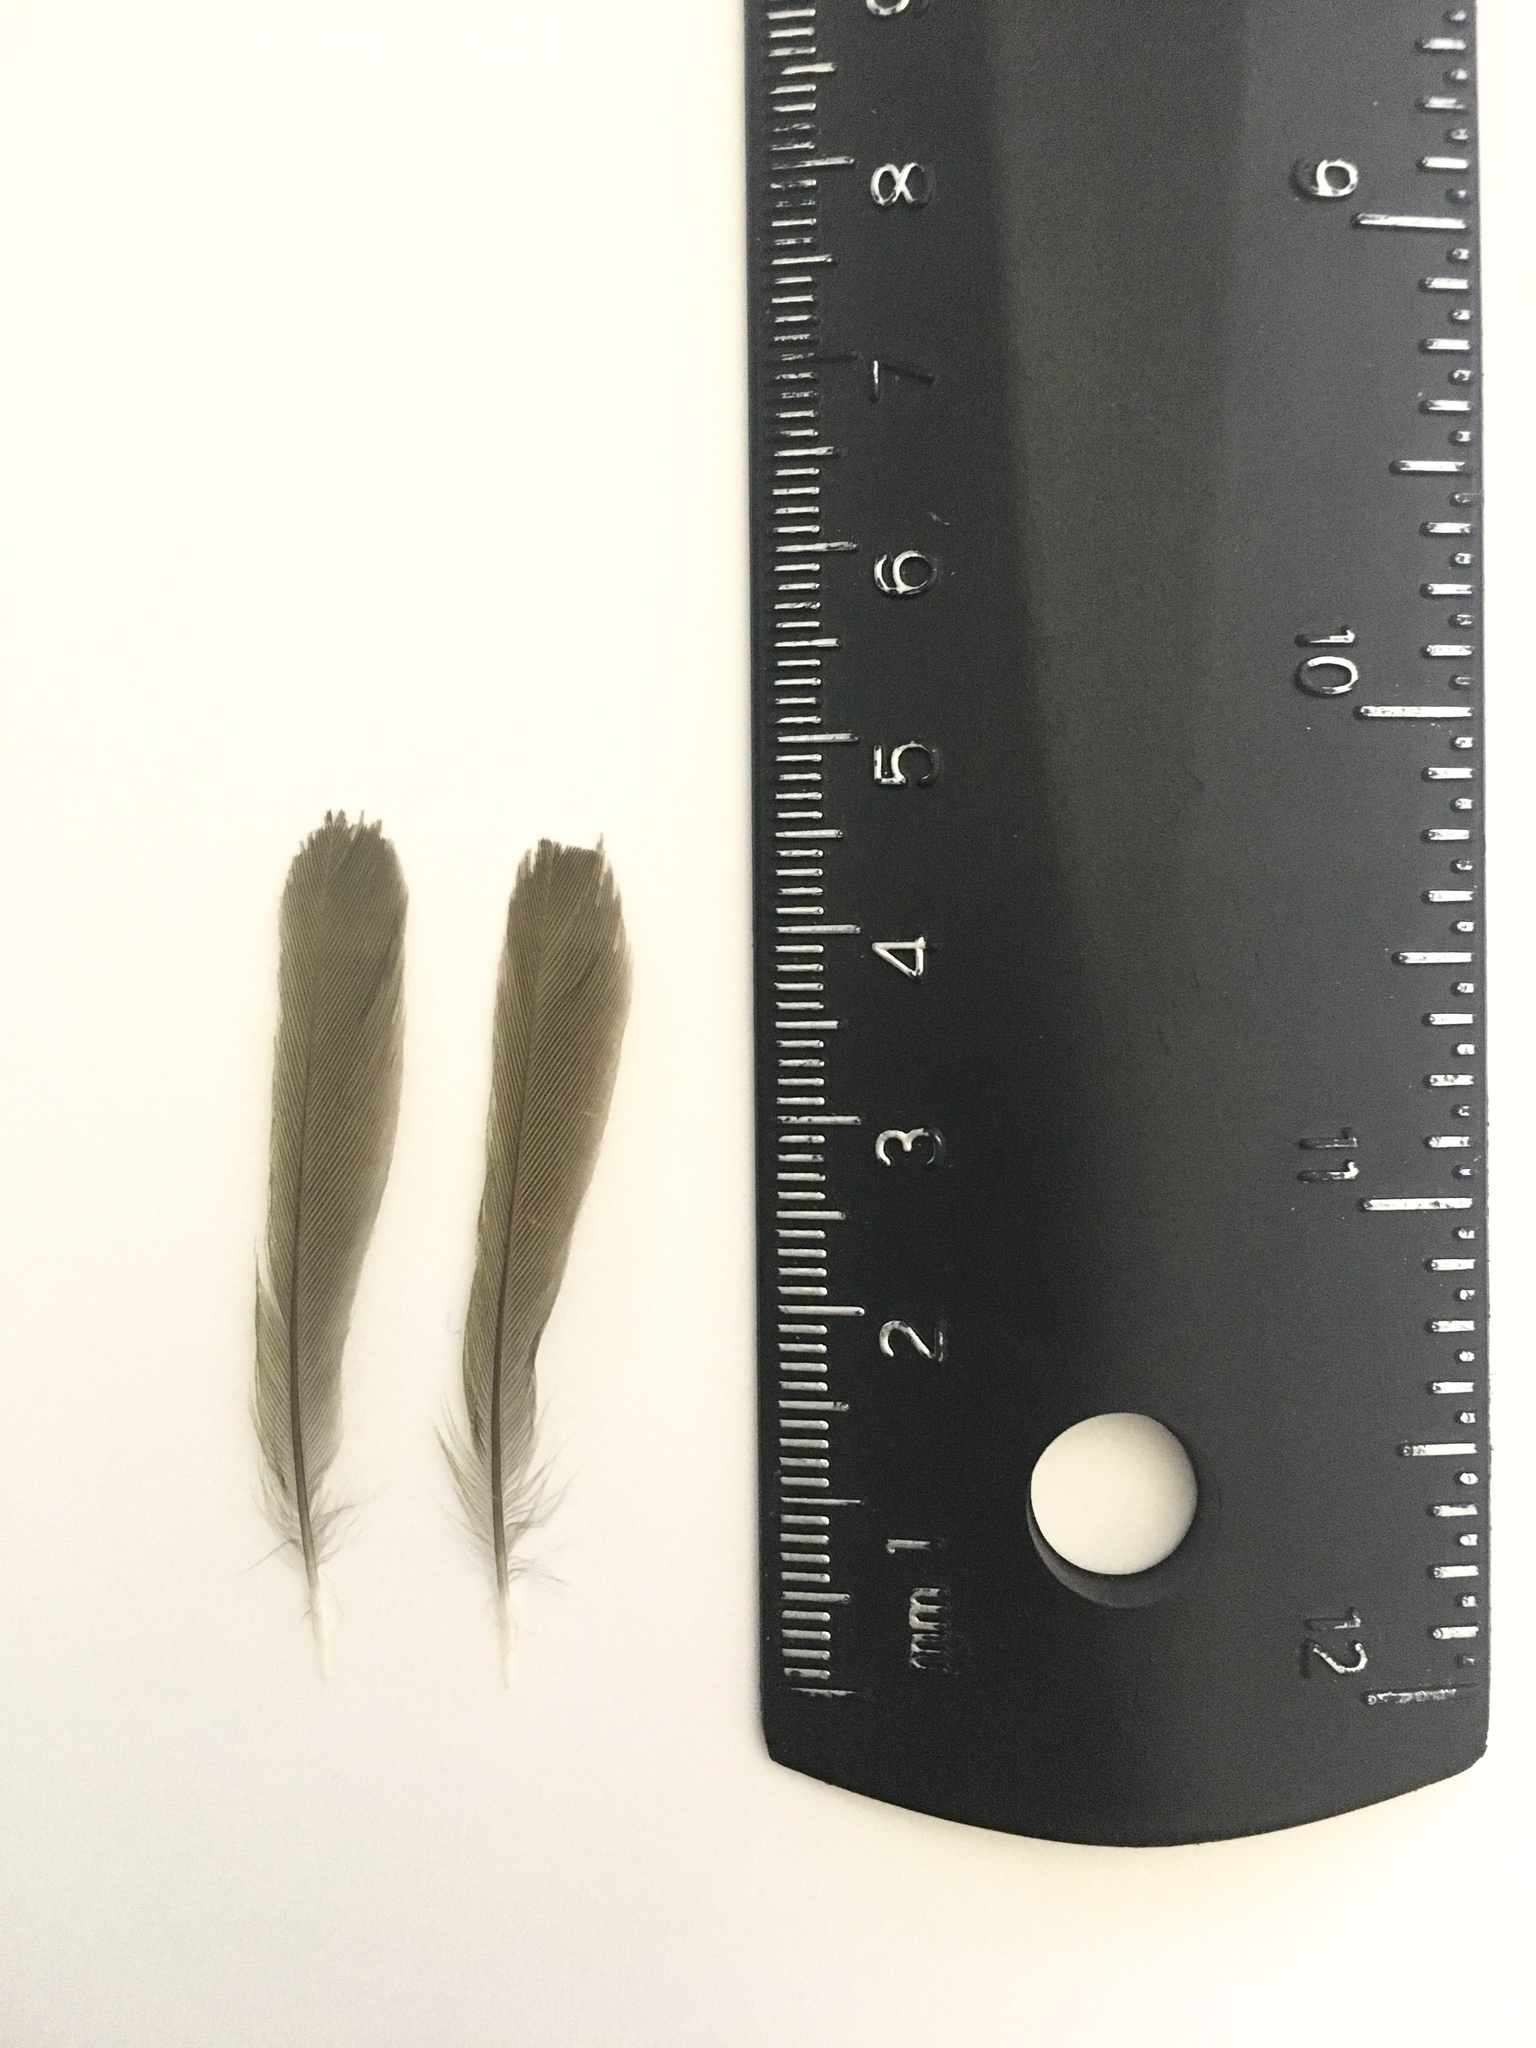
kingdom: Animalia
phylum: Chordata
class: Aves
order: Passeriformes
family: Parulidae
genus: Geothlypis
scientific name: Geothlypis trichas
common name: Common yellowthroat
